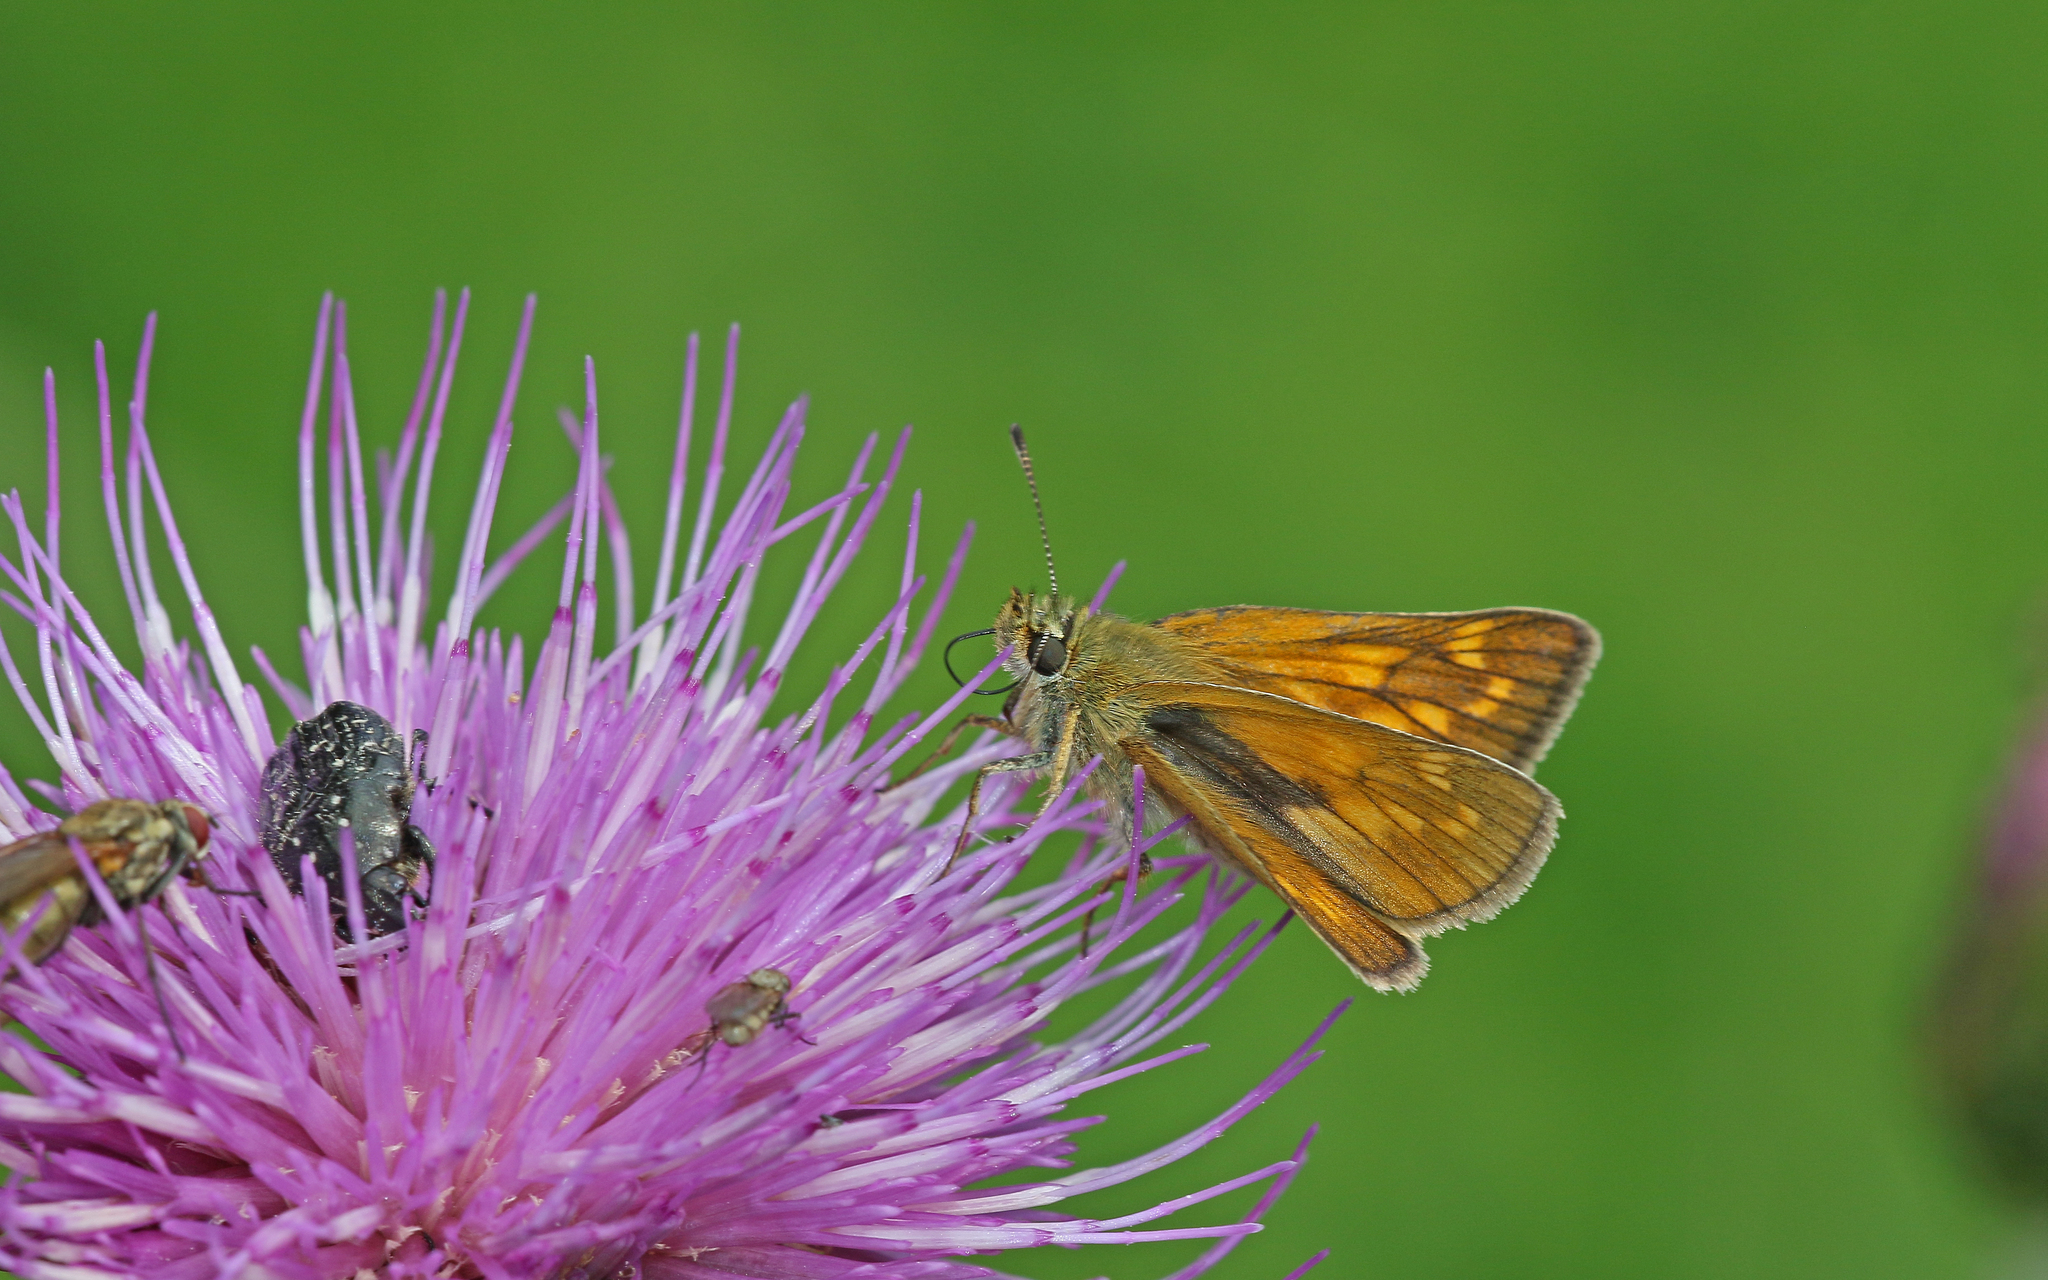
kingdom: Animalia
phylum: Arthropoda
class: Insecta
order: Lepidoptera
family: Hesperiidae
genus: Ochlodes
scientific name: Ochlodes venata
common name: Large skipper
